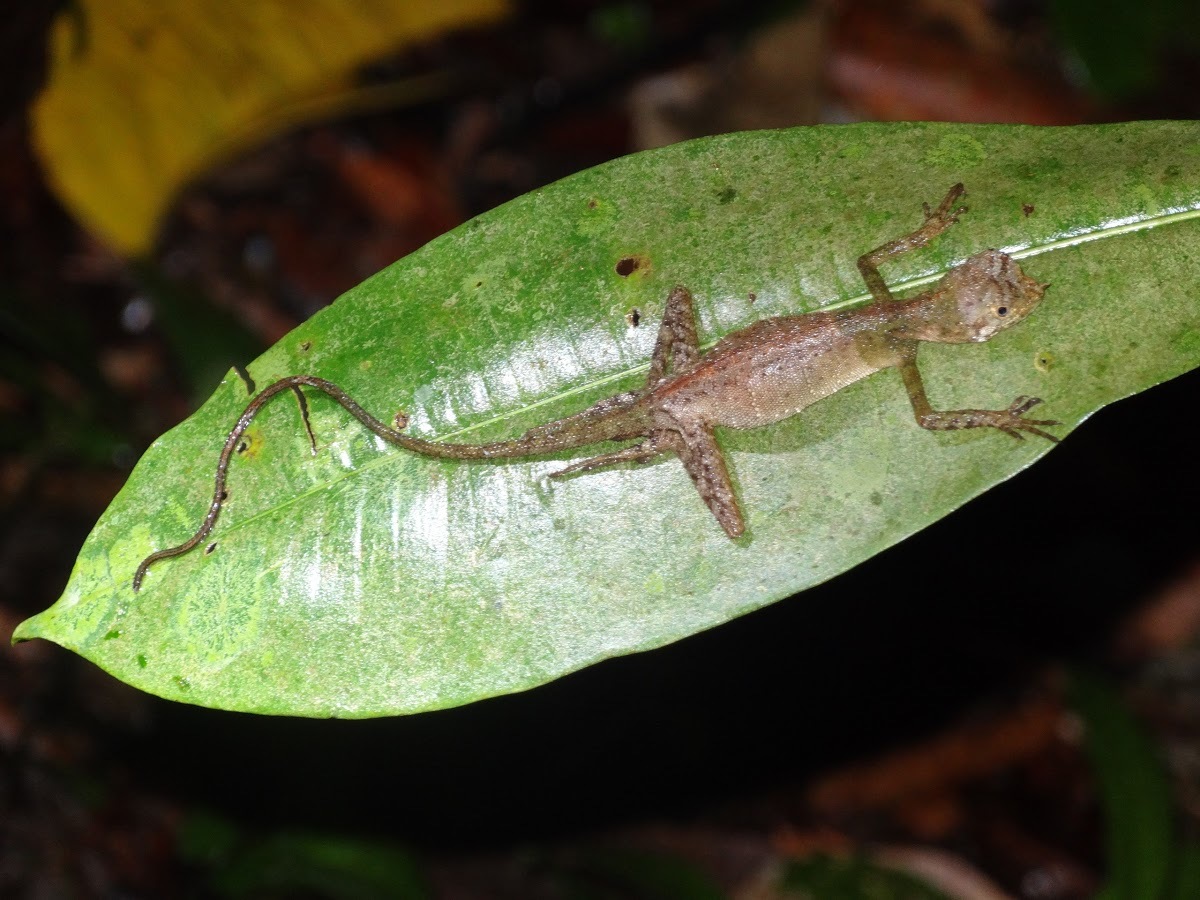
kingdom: Animalia
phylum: Chordata
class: Squamata
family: Agamidae
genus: Aphaniotis
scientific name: Aphaniotis ornata
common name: Ornate earless agama
